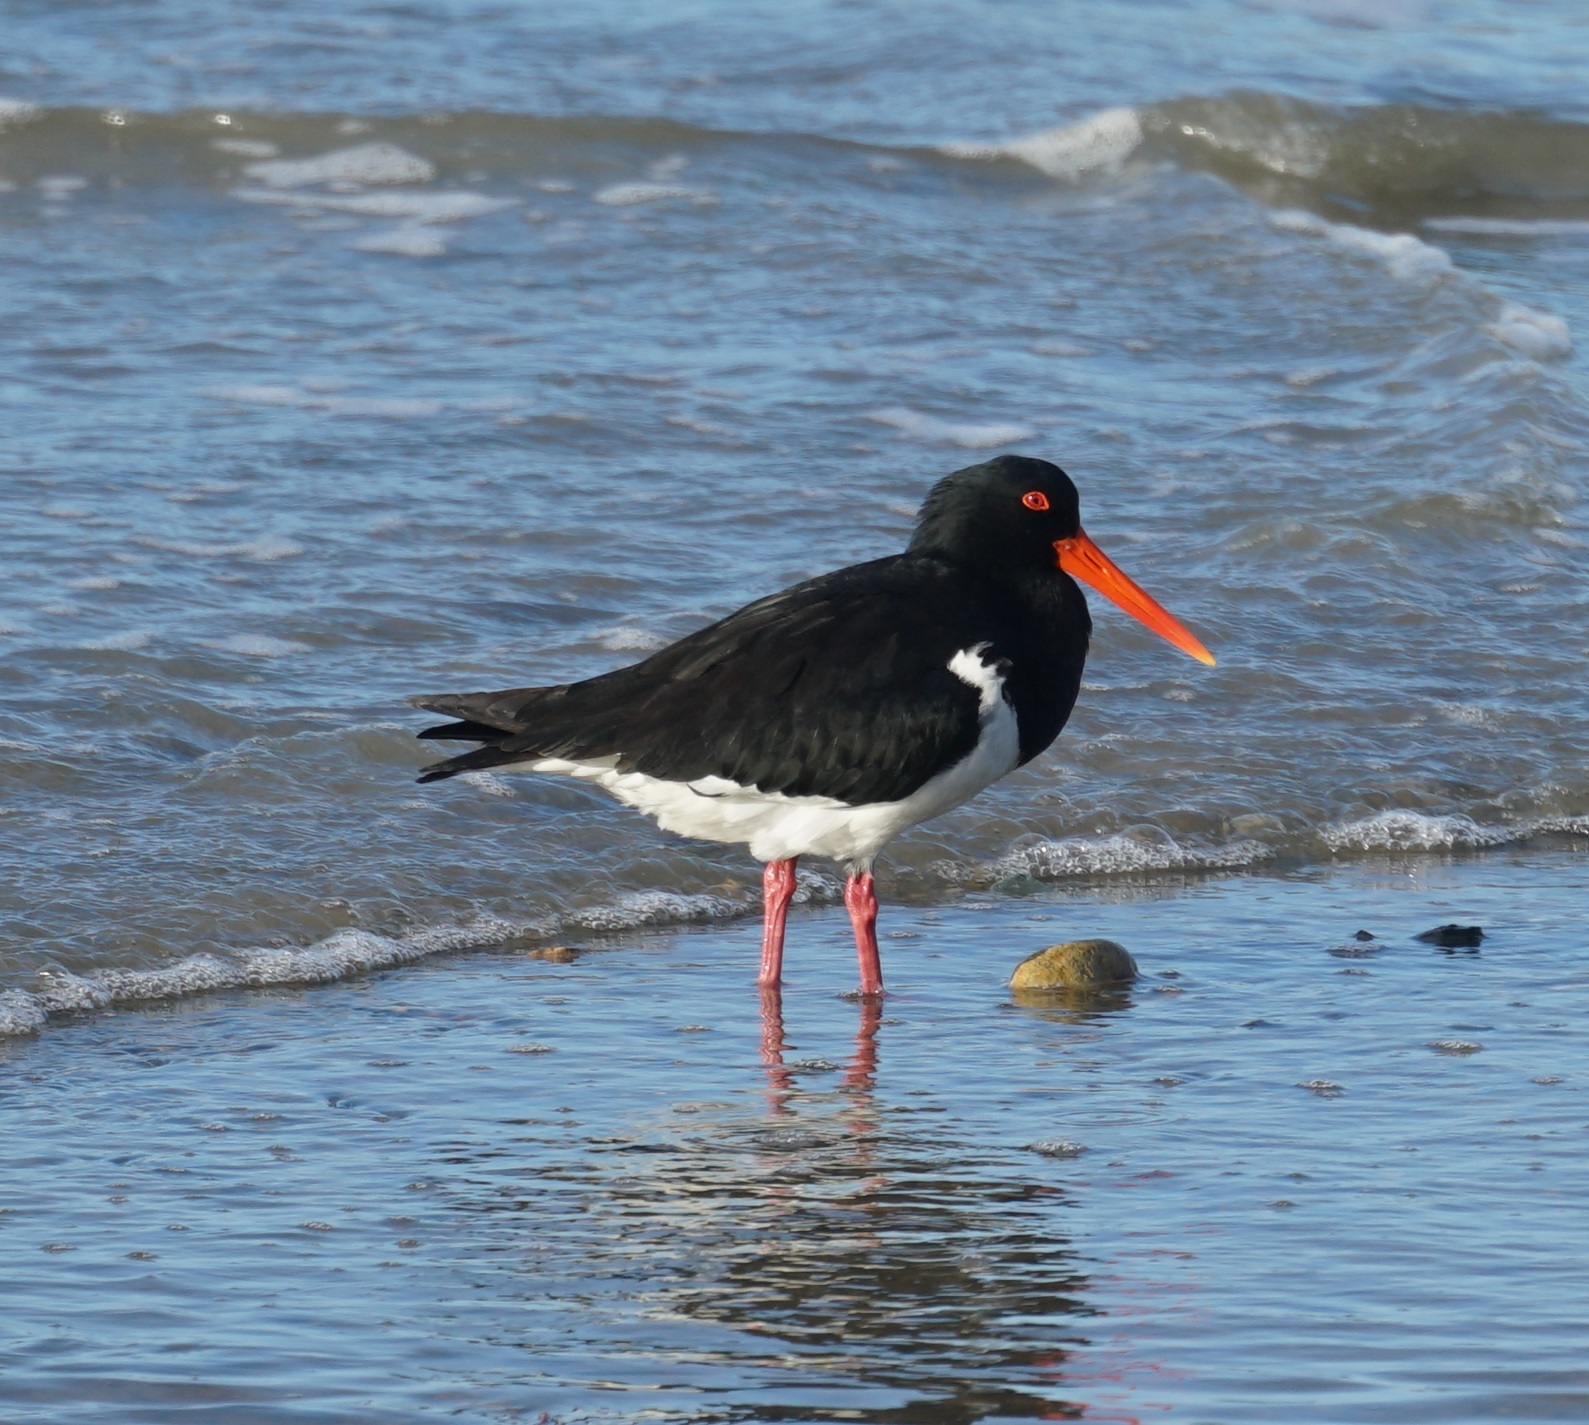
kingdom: Animalia
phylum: Chordata
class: Aves
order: Charadriiformes
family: Haematopodidae
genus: Haematopus
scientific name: Haematopus longirostris
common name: Pied oystercatcher
